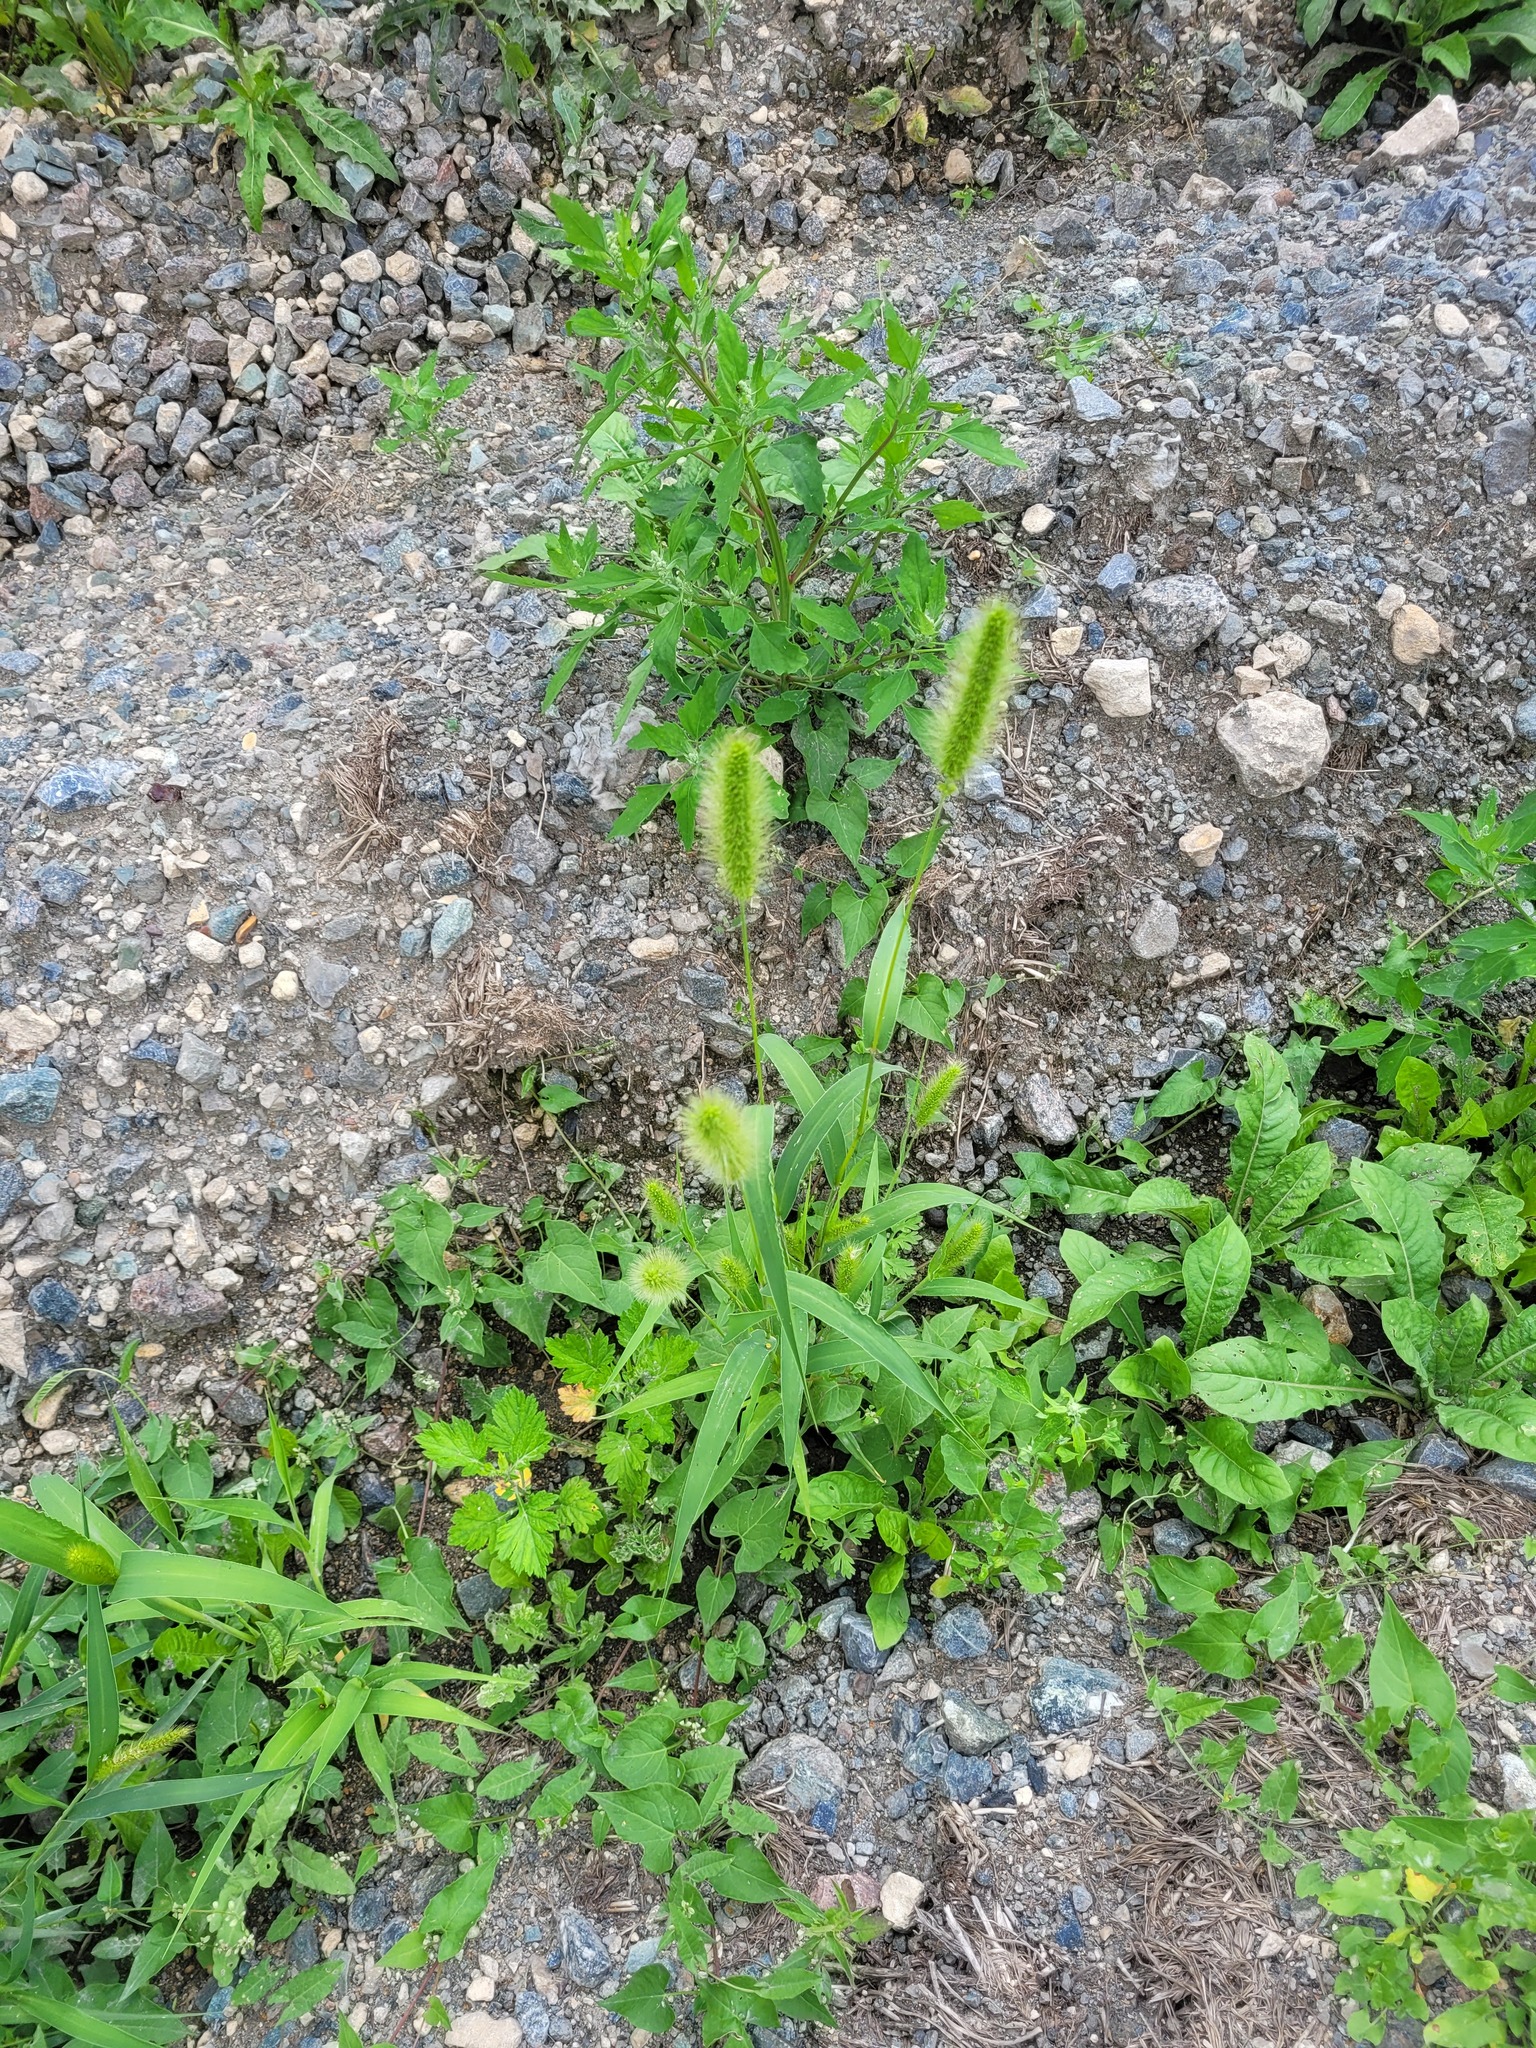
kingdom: Plantae
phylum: Tracheophyta
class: Liliopsida
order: Poales
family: Poaceae
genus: Setaria
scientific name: Setaria viridis
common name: Green bristlegrass
